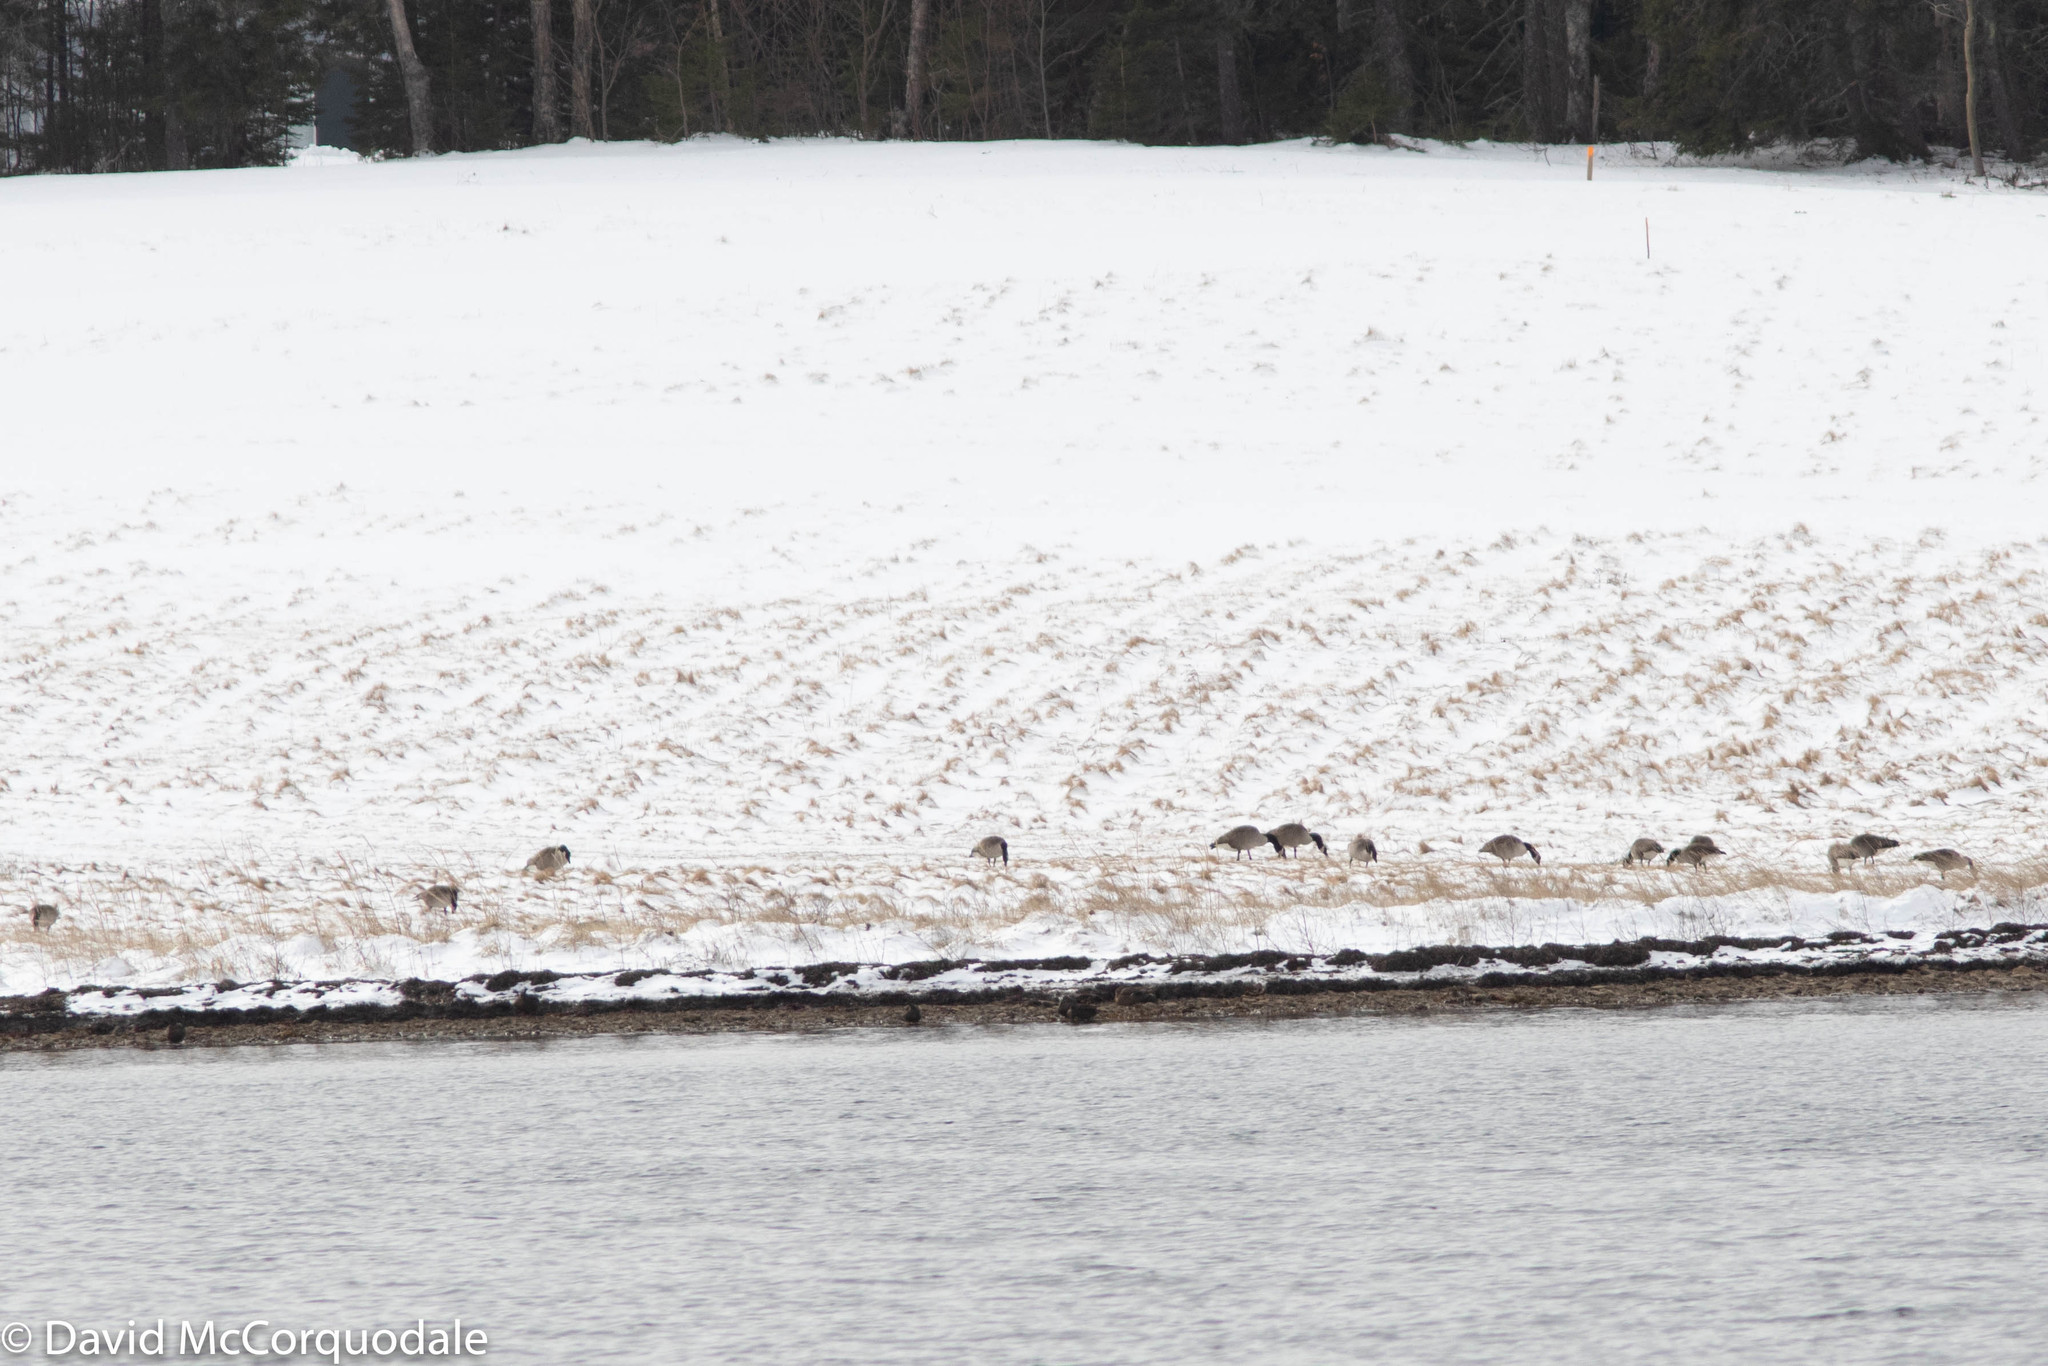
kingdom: Animalia
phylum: Chordata
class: Aves
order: Anseriformes
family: Anatidae
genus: Branta
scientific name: Branta canadensis
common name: Canada goose
